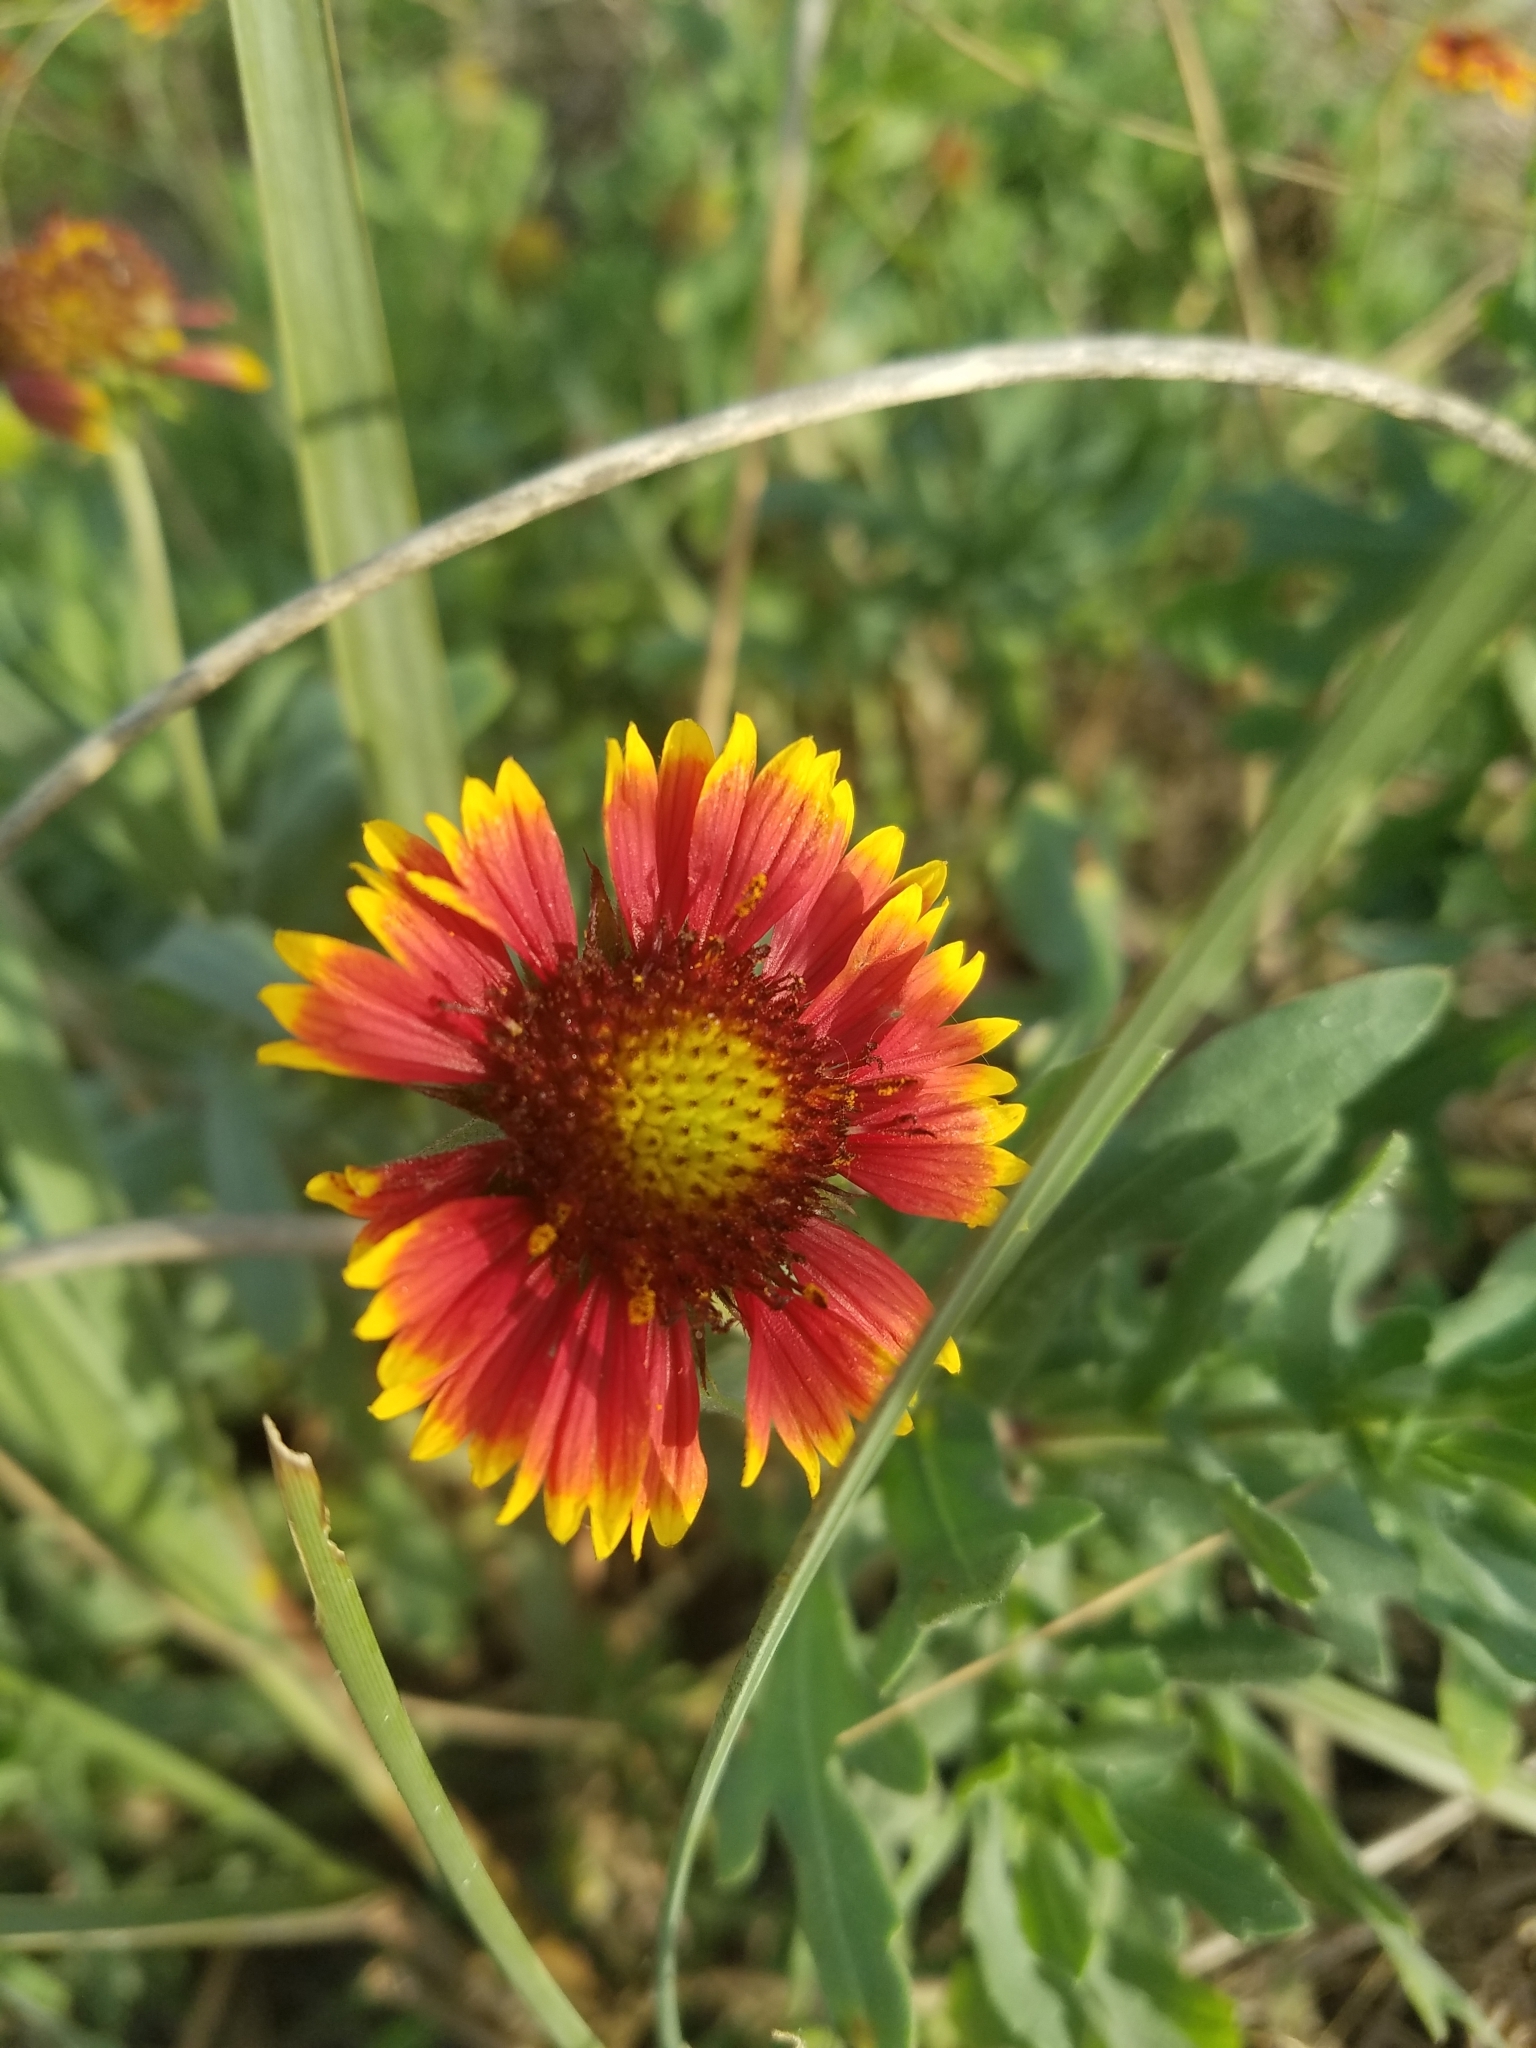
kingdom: Plantae
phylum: Tracheophyta
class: Magnoliopsida
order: Asterales
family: Asteraceae
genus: Gaillardia
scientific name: Gaillardia pulchella
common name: Firewheel
